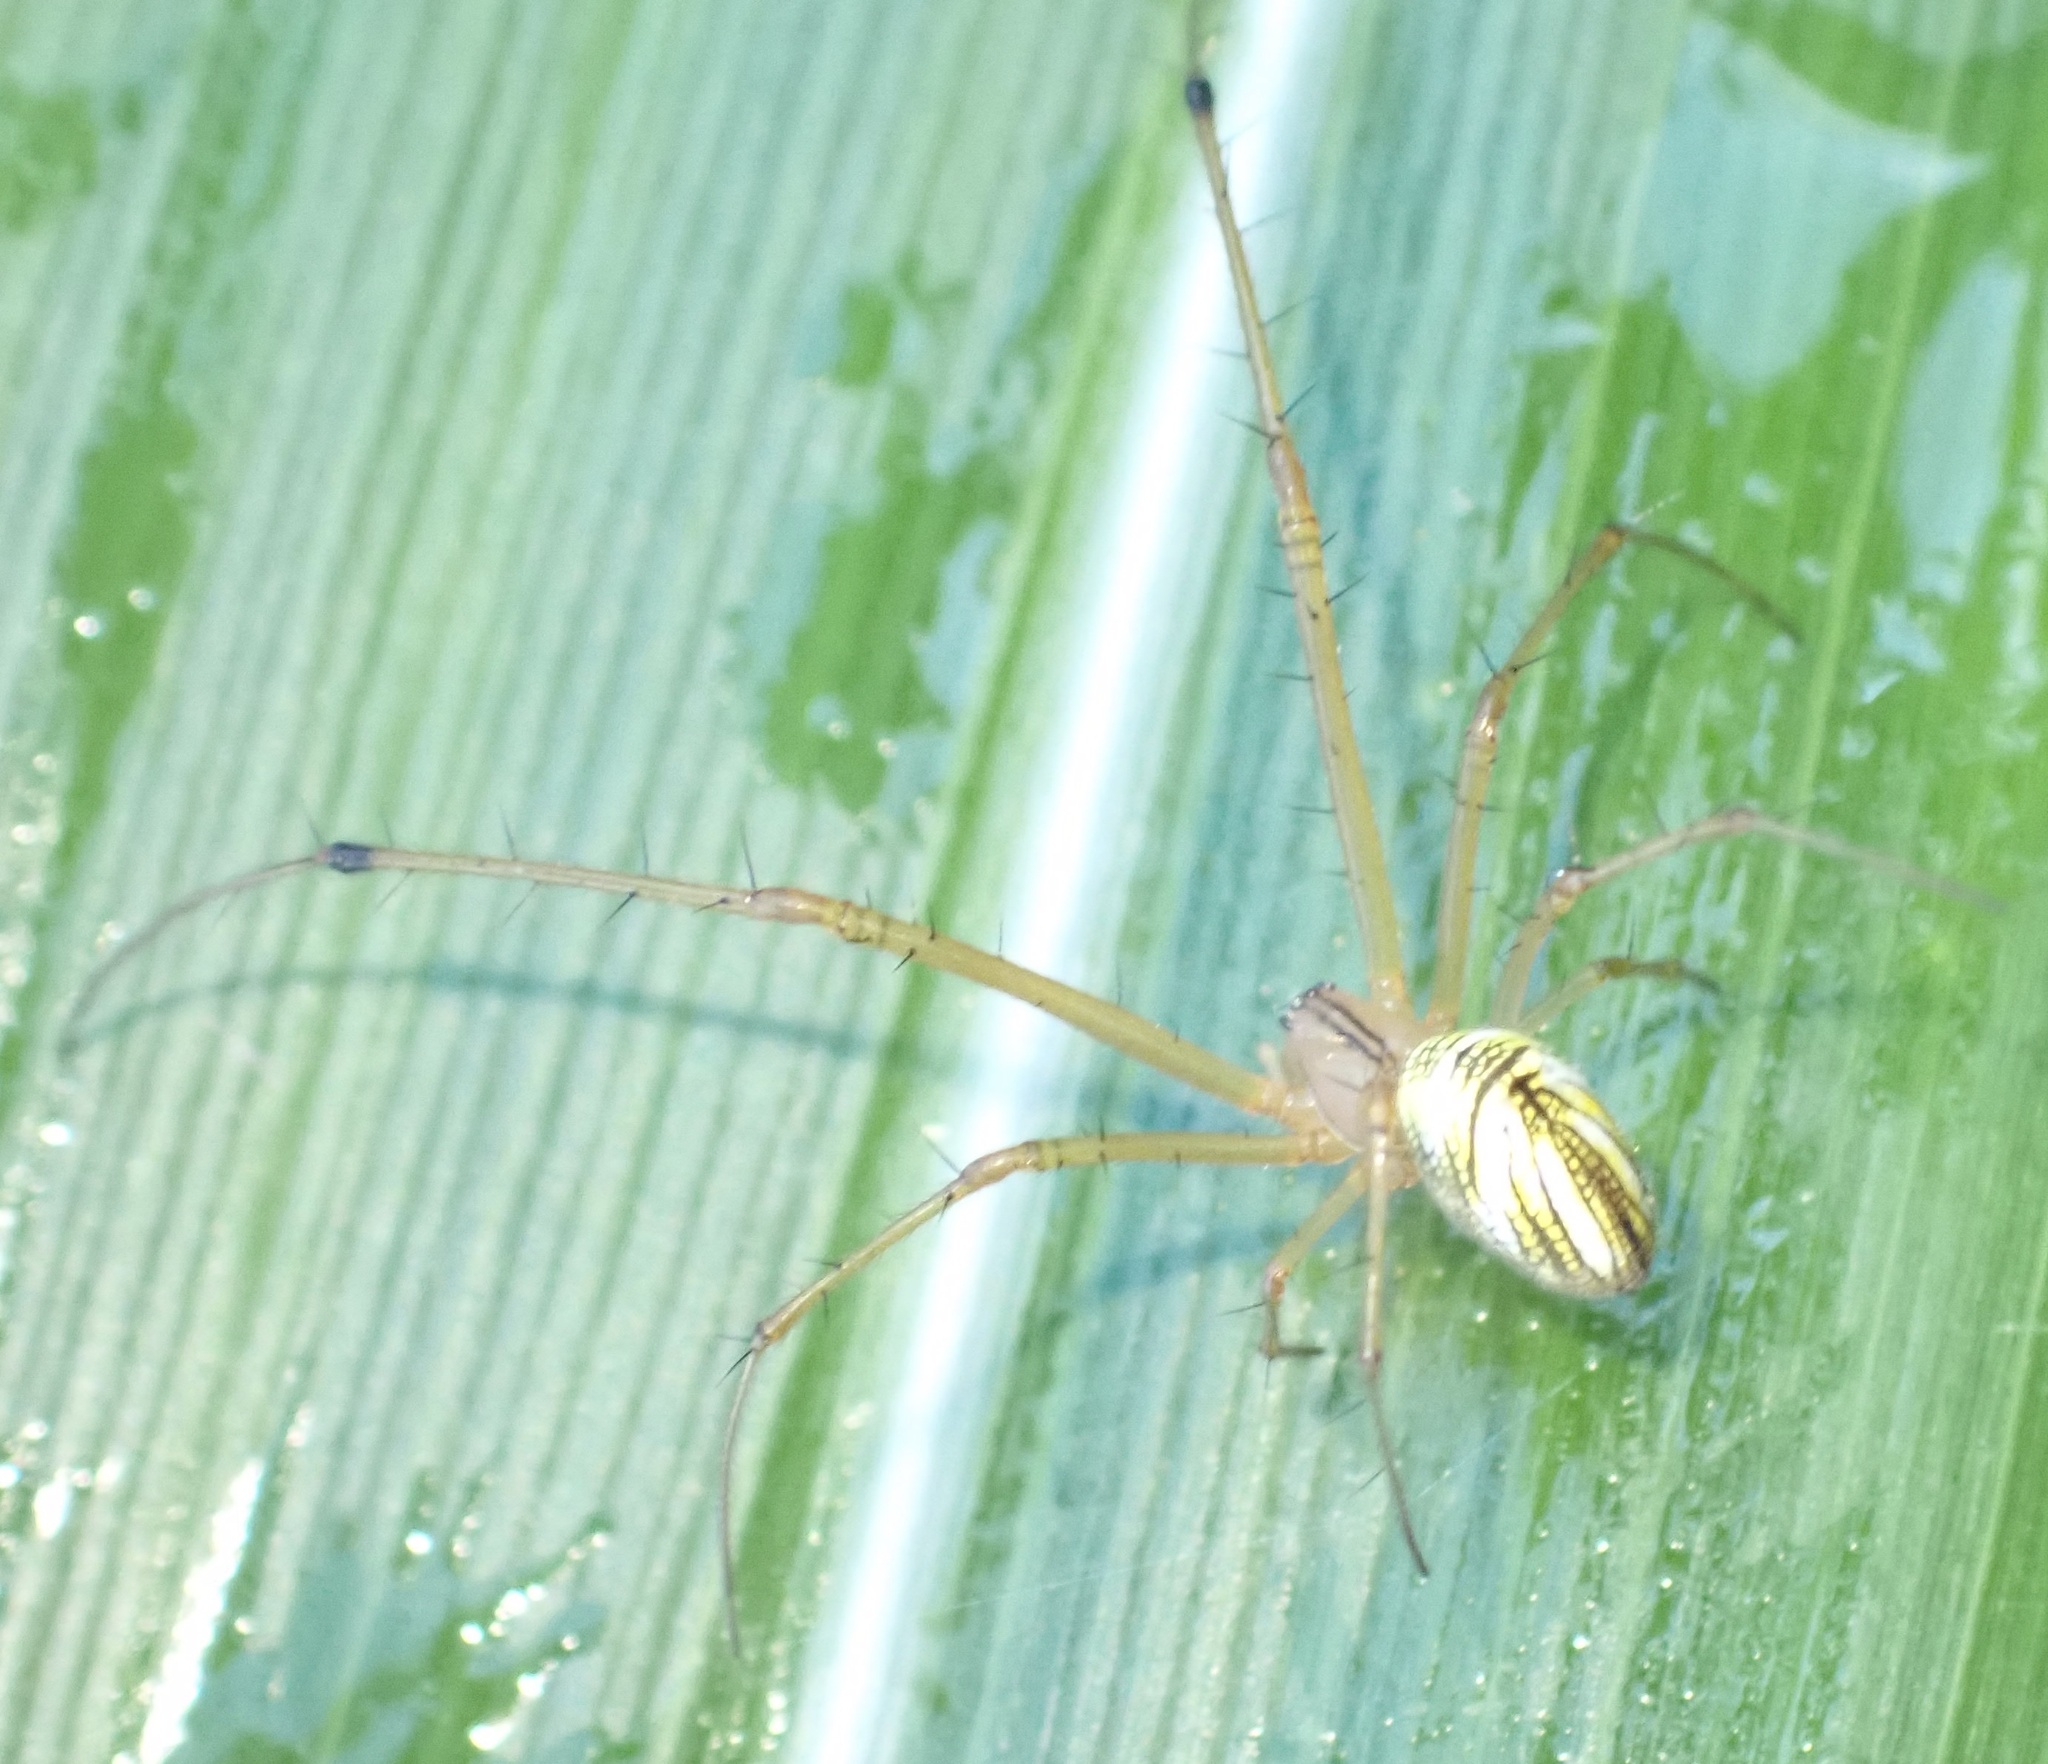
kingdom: Animalia
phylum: Arthropoda
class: Arachnida
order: Araneae
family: Tetragnathidae
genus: Tylorida
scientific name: Tylorida striata
